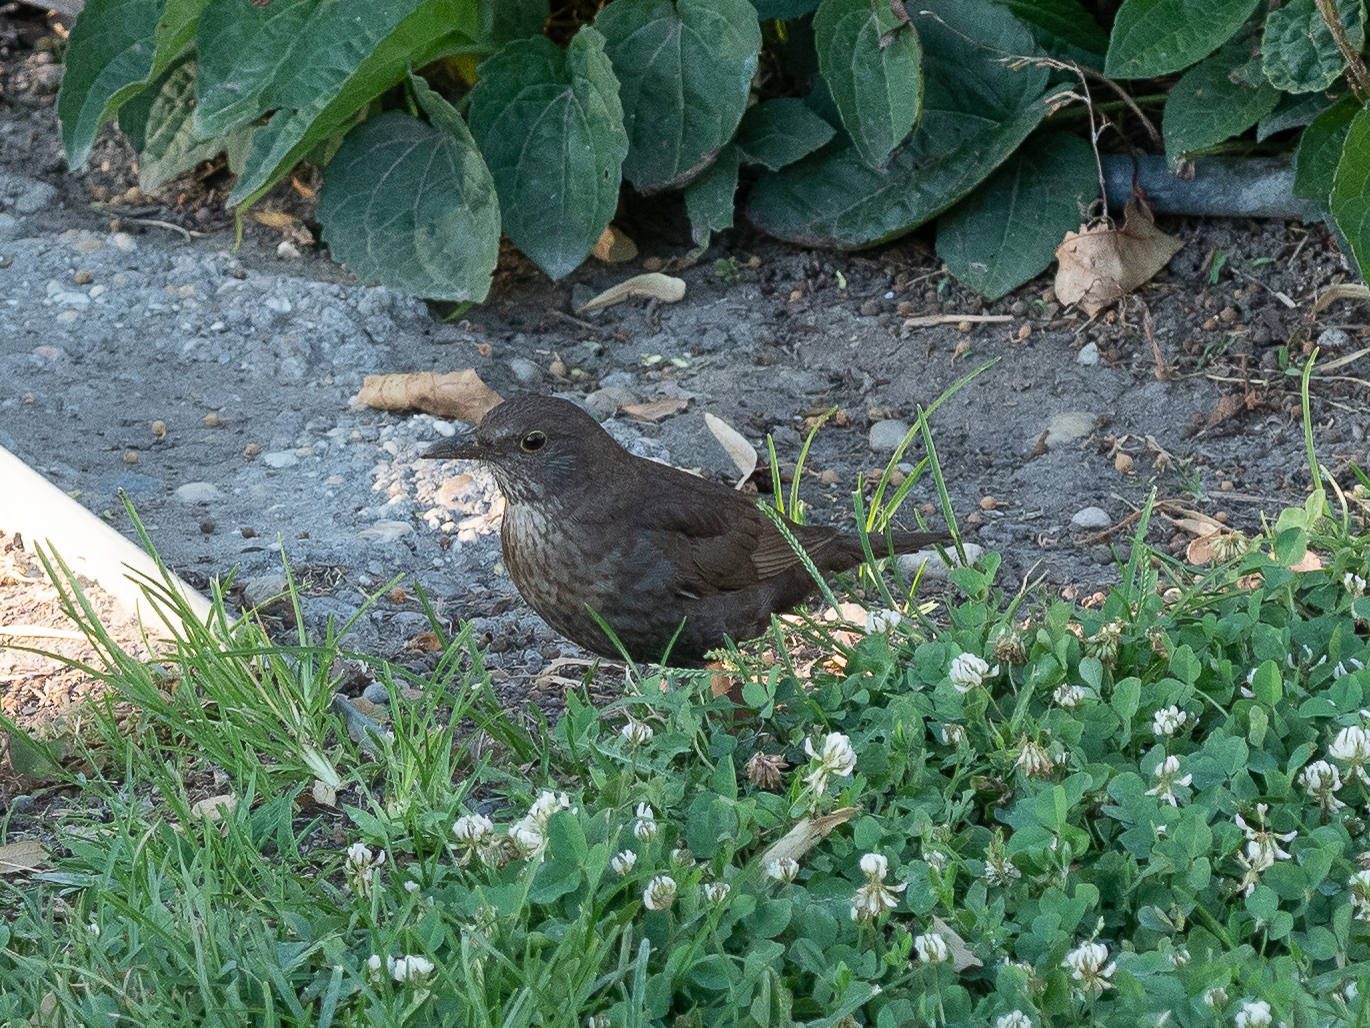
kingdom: Animalia
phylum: Chordata
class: Aves
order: Passeriformes
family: Turdidae
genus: Turdus
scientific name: Turdus merula
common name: Common blackbird
